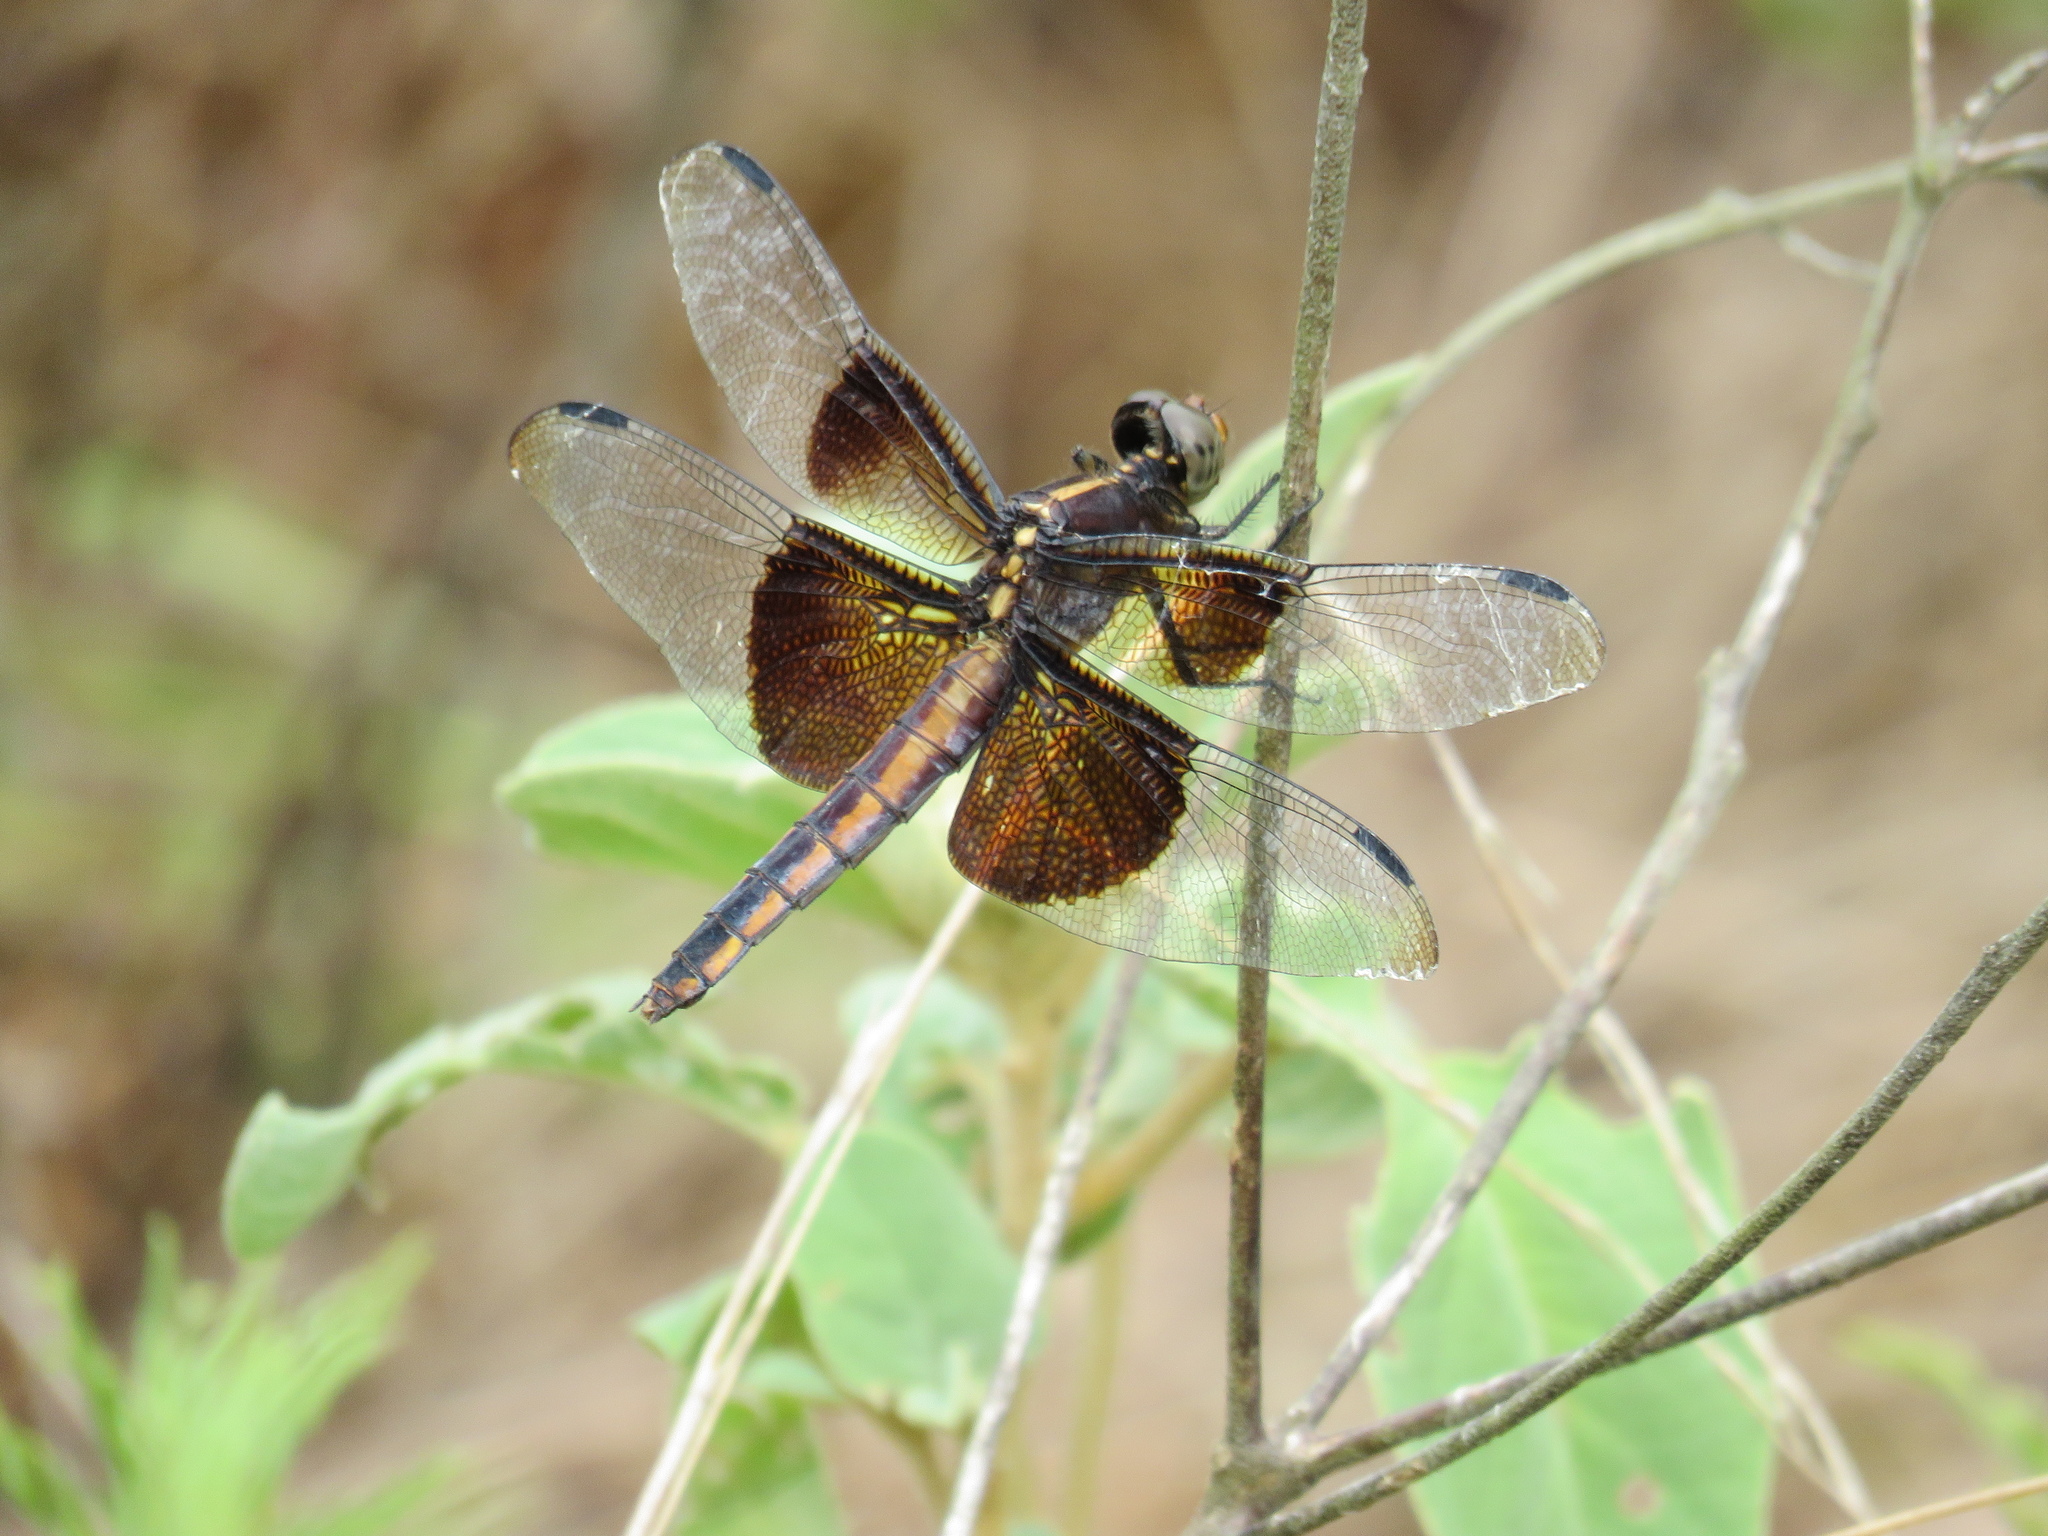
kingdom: Animalia
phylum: Arthropoda
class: Insecta
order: Odonata
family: Libellulidae
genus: Libellula
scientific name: Libellula luctuosa
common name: Widow skimmer
